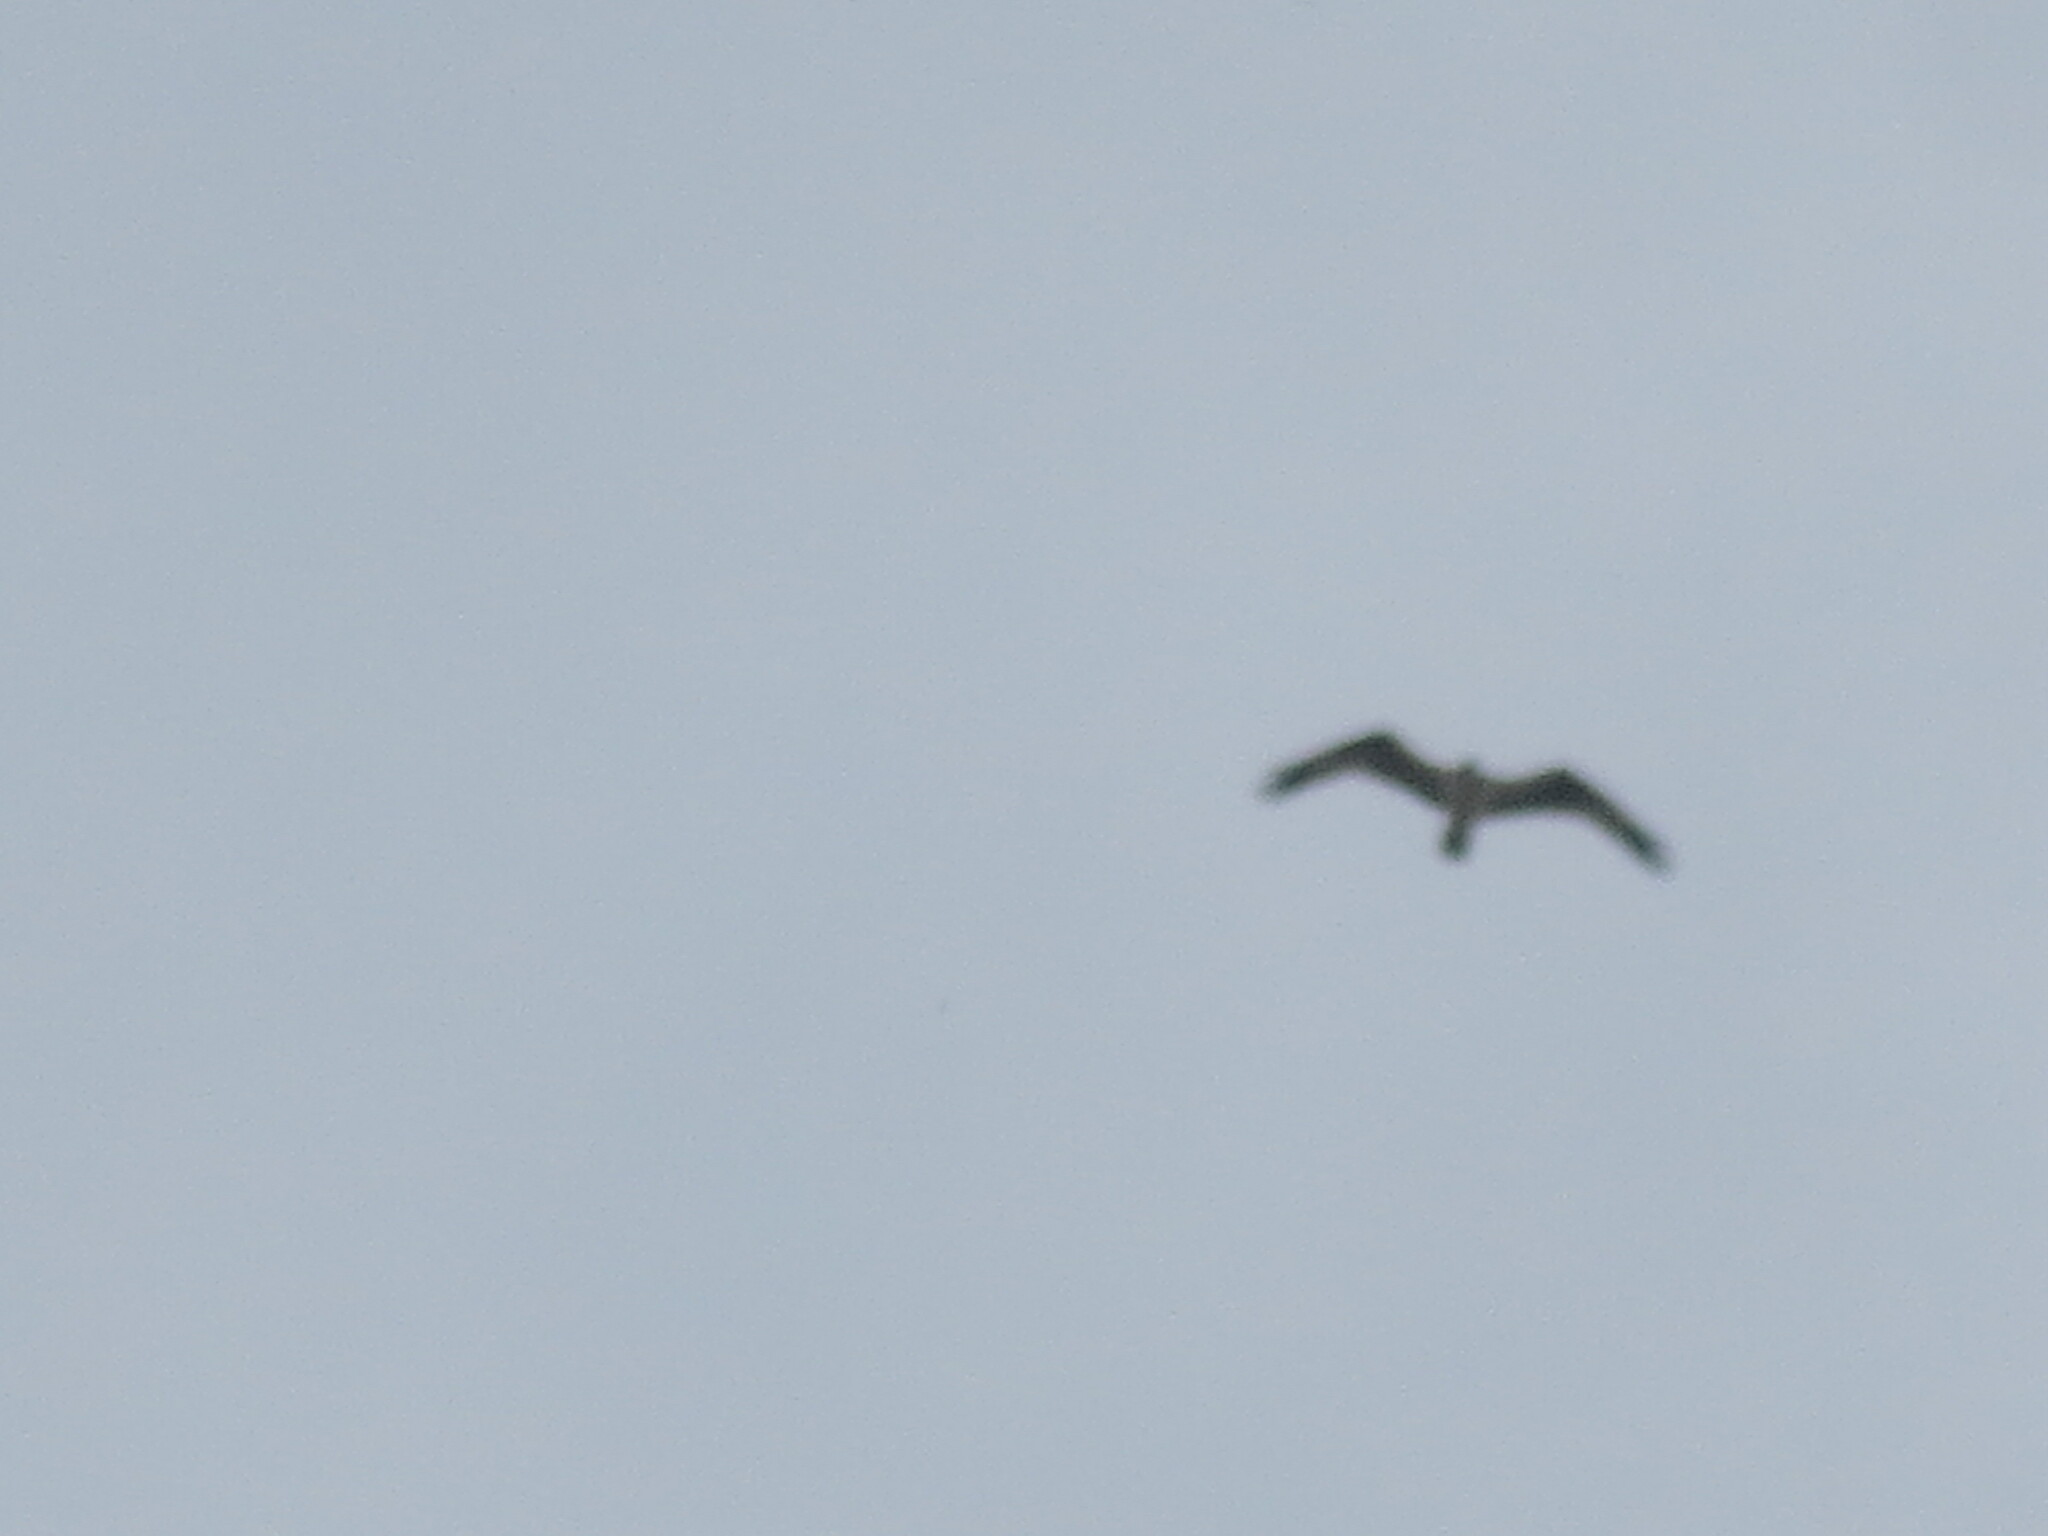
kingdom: Animalia
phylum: Chordata
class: Aves
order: Accipitriformes
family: Pandionidae
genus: Pandion
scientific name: Pandion haliaetus
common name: Osprey
